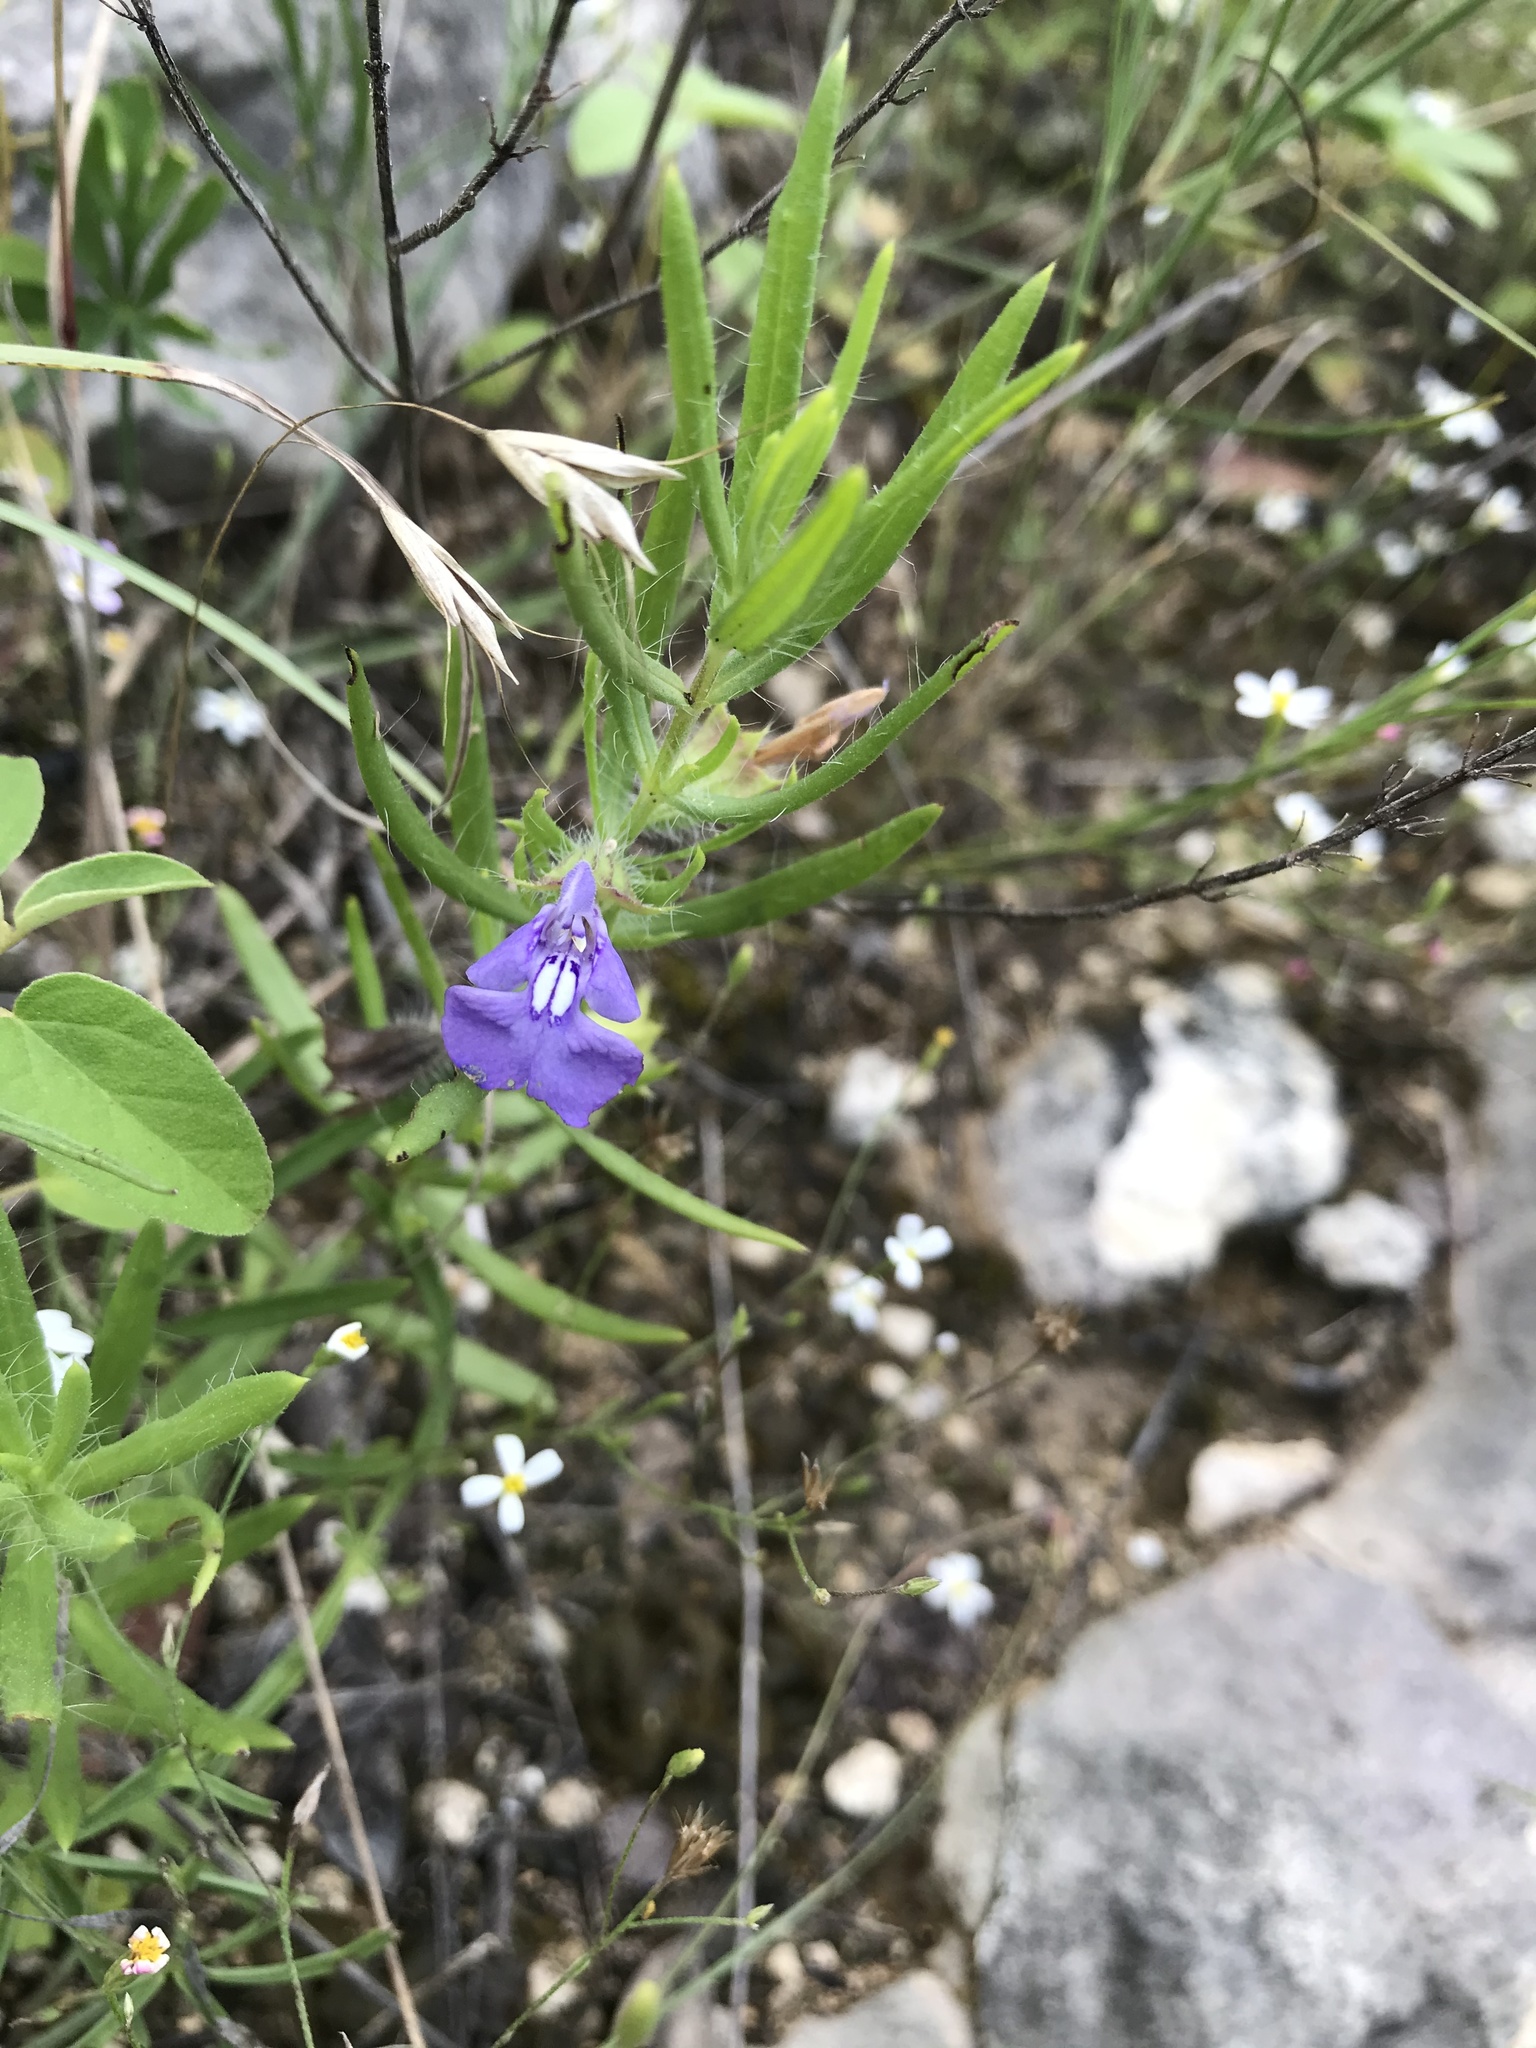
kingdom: Plantae
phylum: Tracheophyta
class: Magnoliopsida
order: Lamiales
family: Lamiaceae
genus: Salvia
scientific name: Salvia texana
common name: Texas sage
